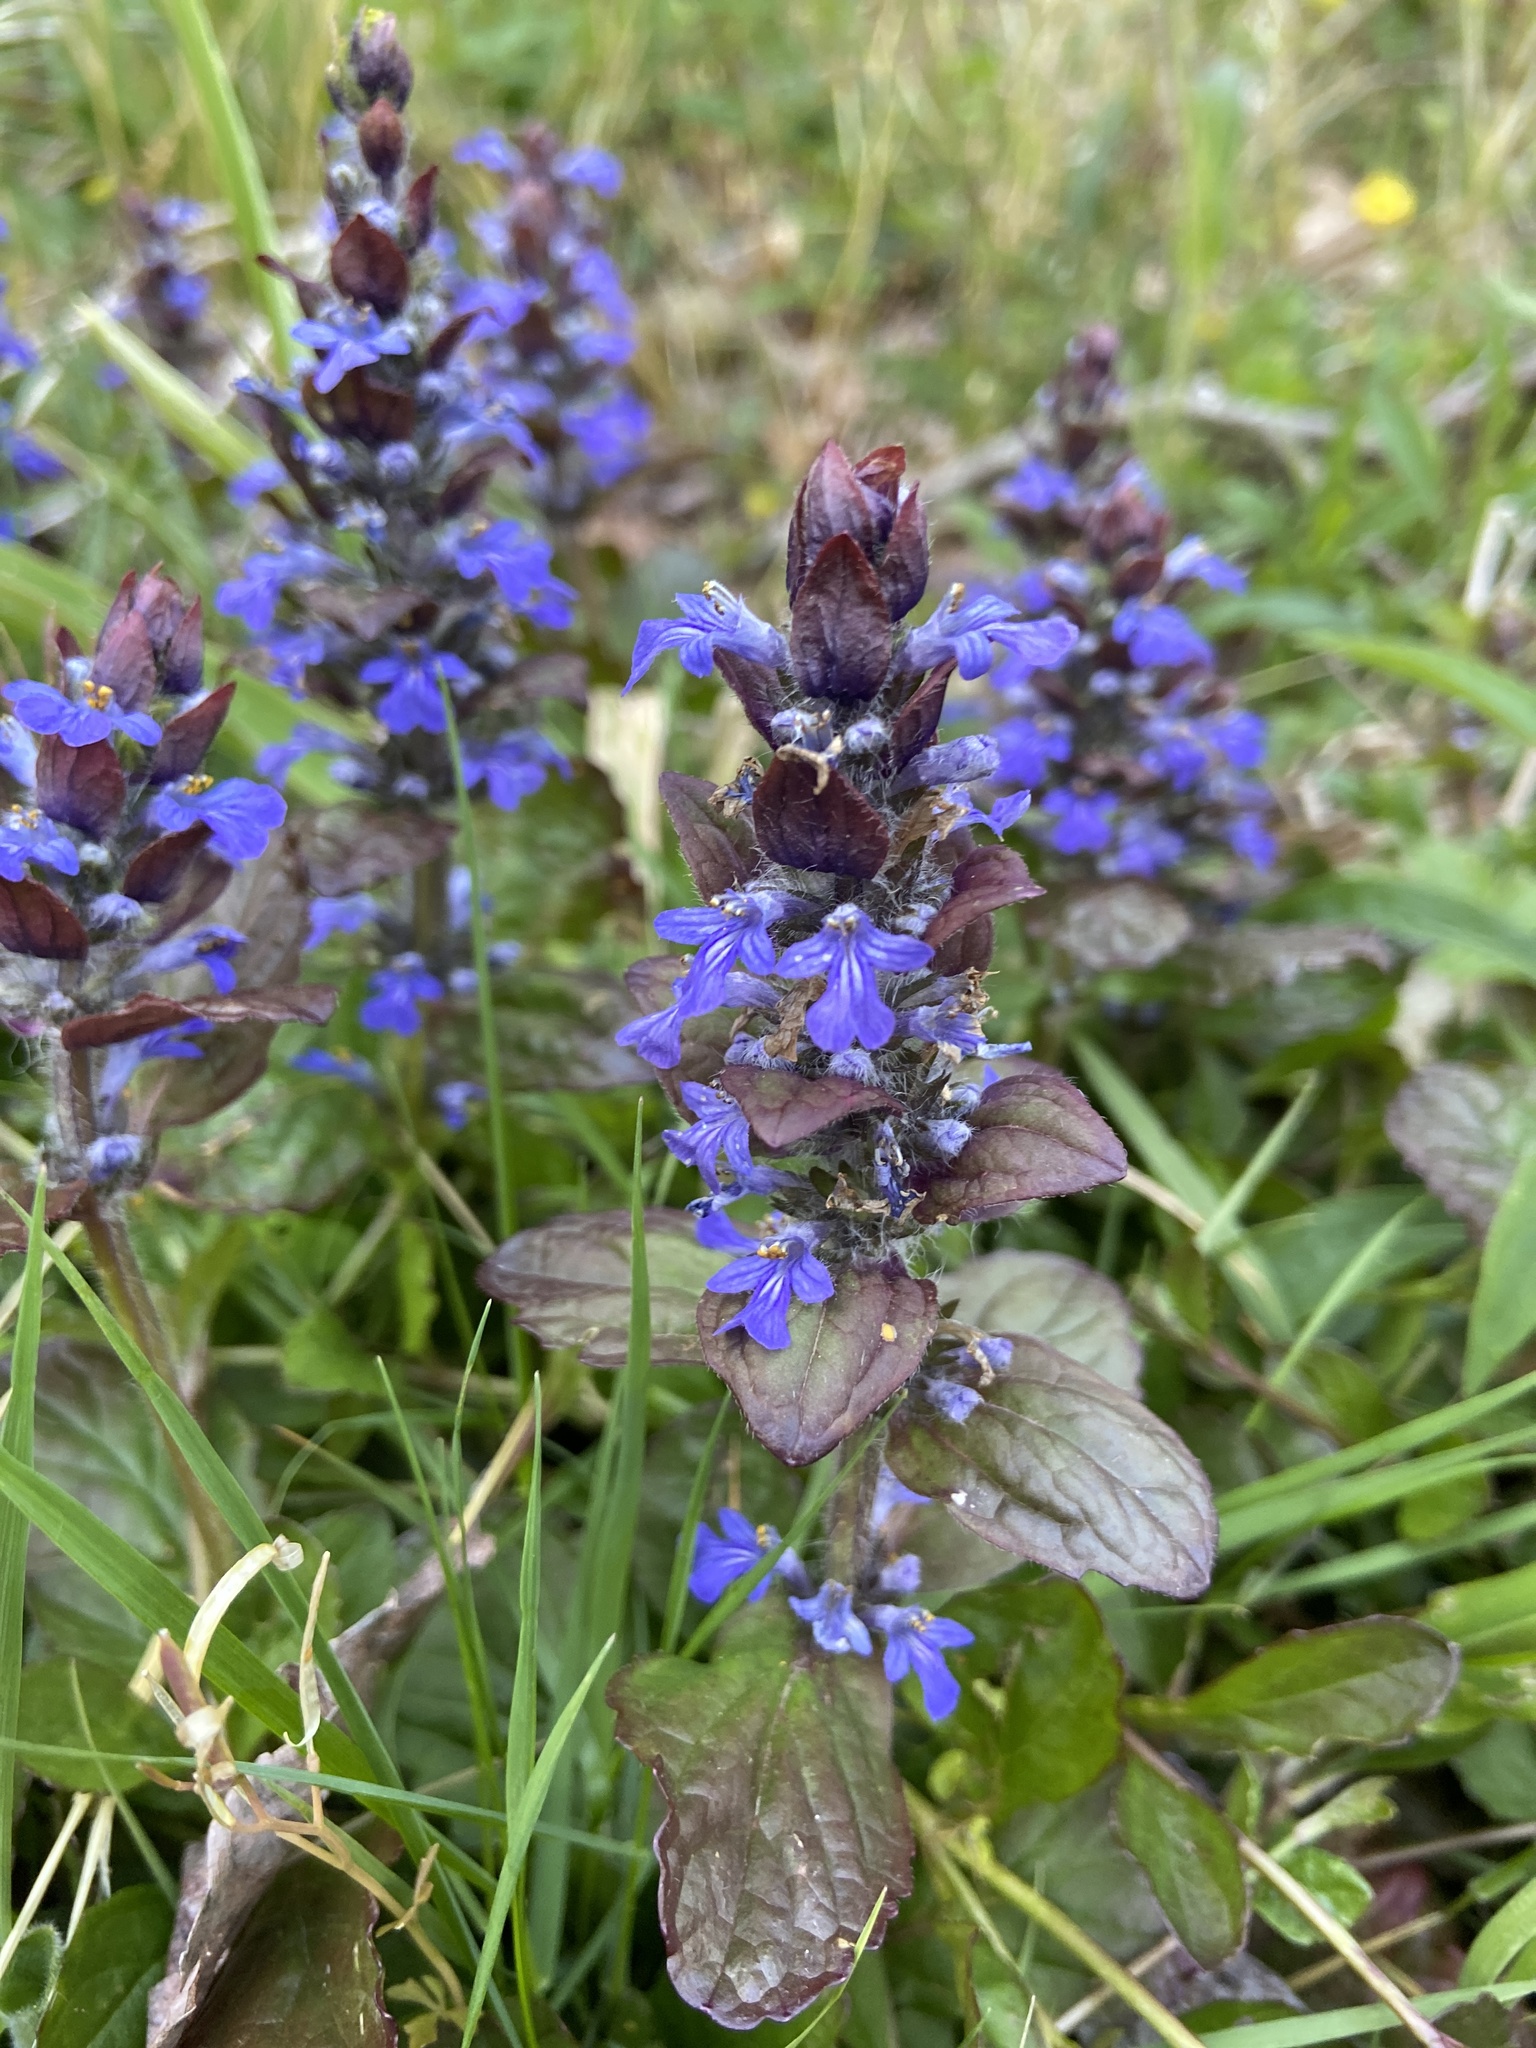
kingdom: Plantae
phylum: Tracheophyta
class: Magnoliopsida
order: Lamiales
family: Lamiaceae
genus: Ajuga
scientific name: Ajuga reptans
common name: Bugle
